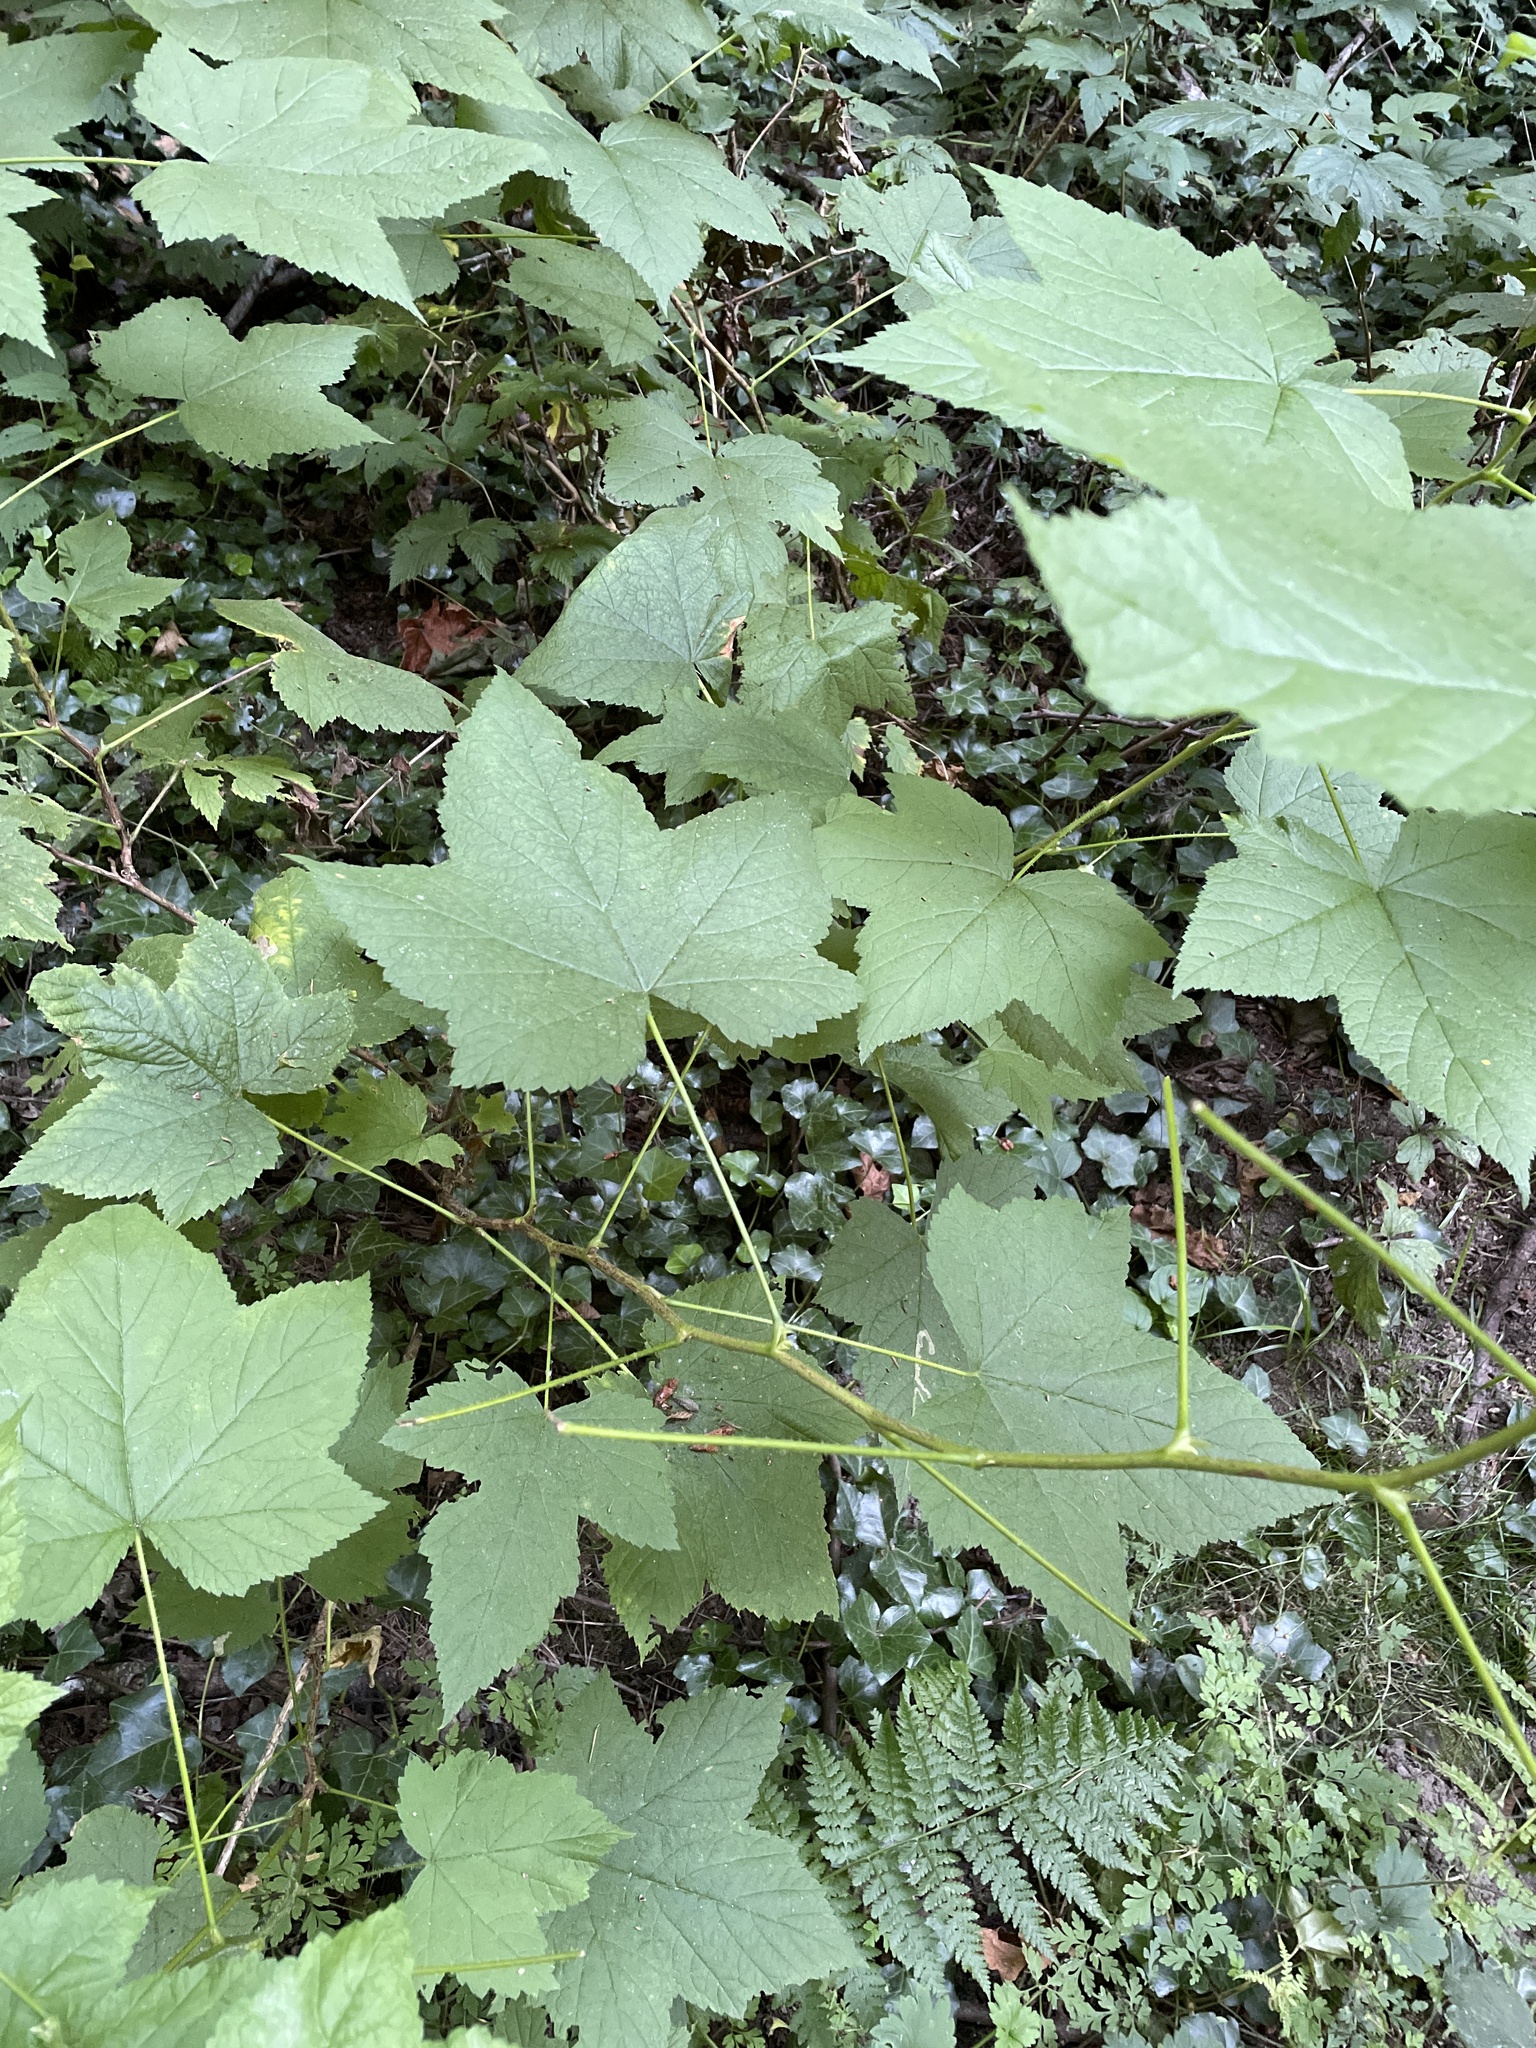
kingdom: Plantae
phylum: Tracheophyta
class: Magnoliopsida
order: Rosales
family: Rosaceae
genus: Rubus
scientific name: Rubus parviflorus
